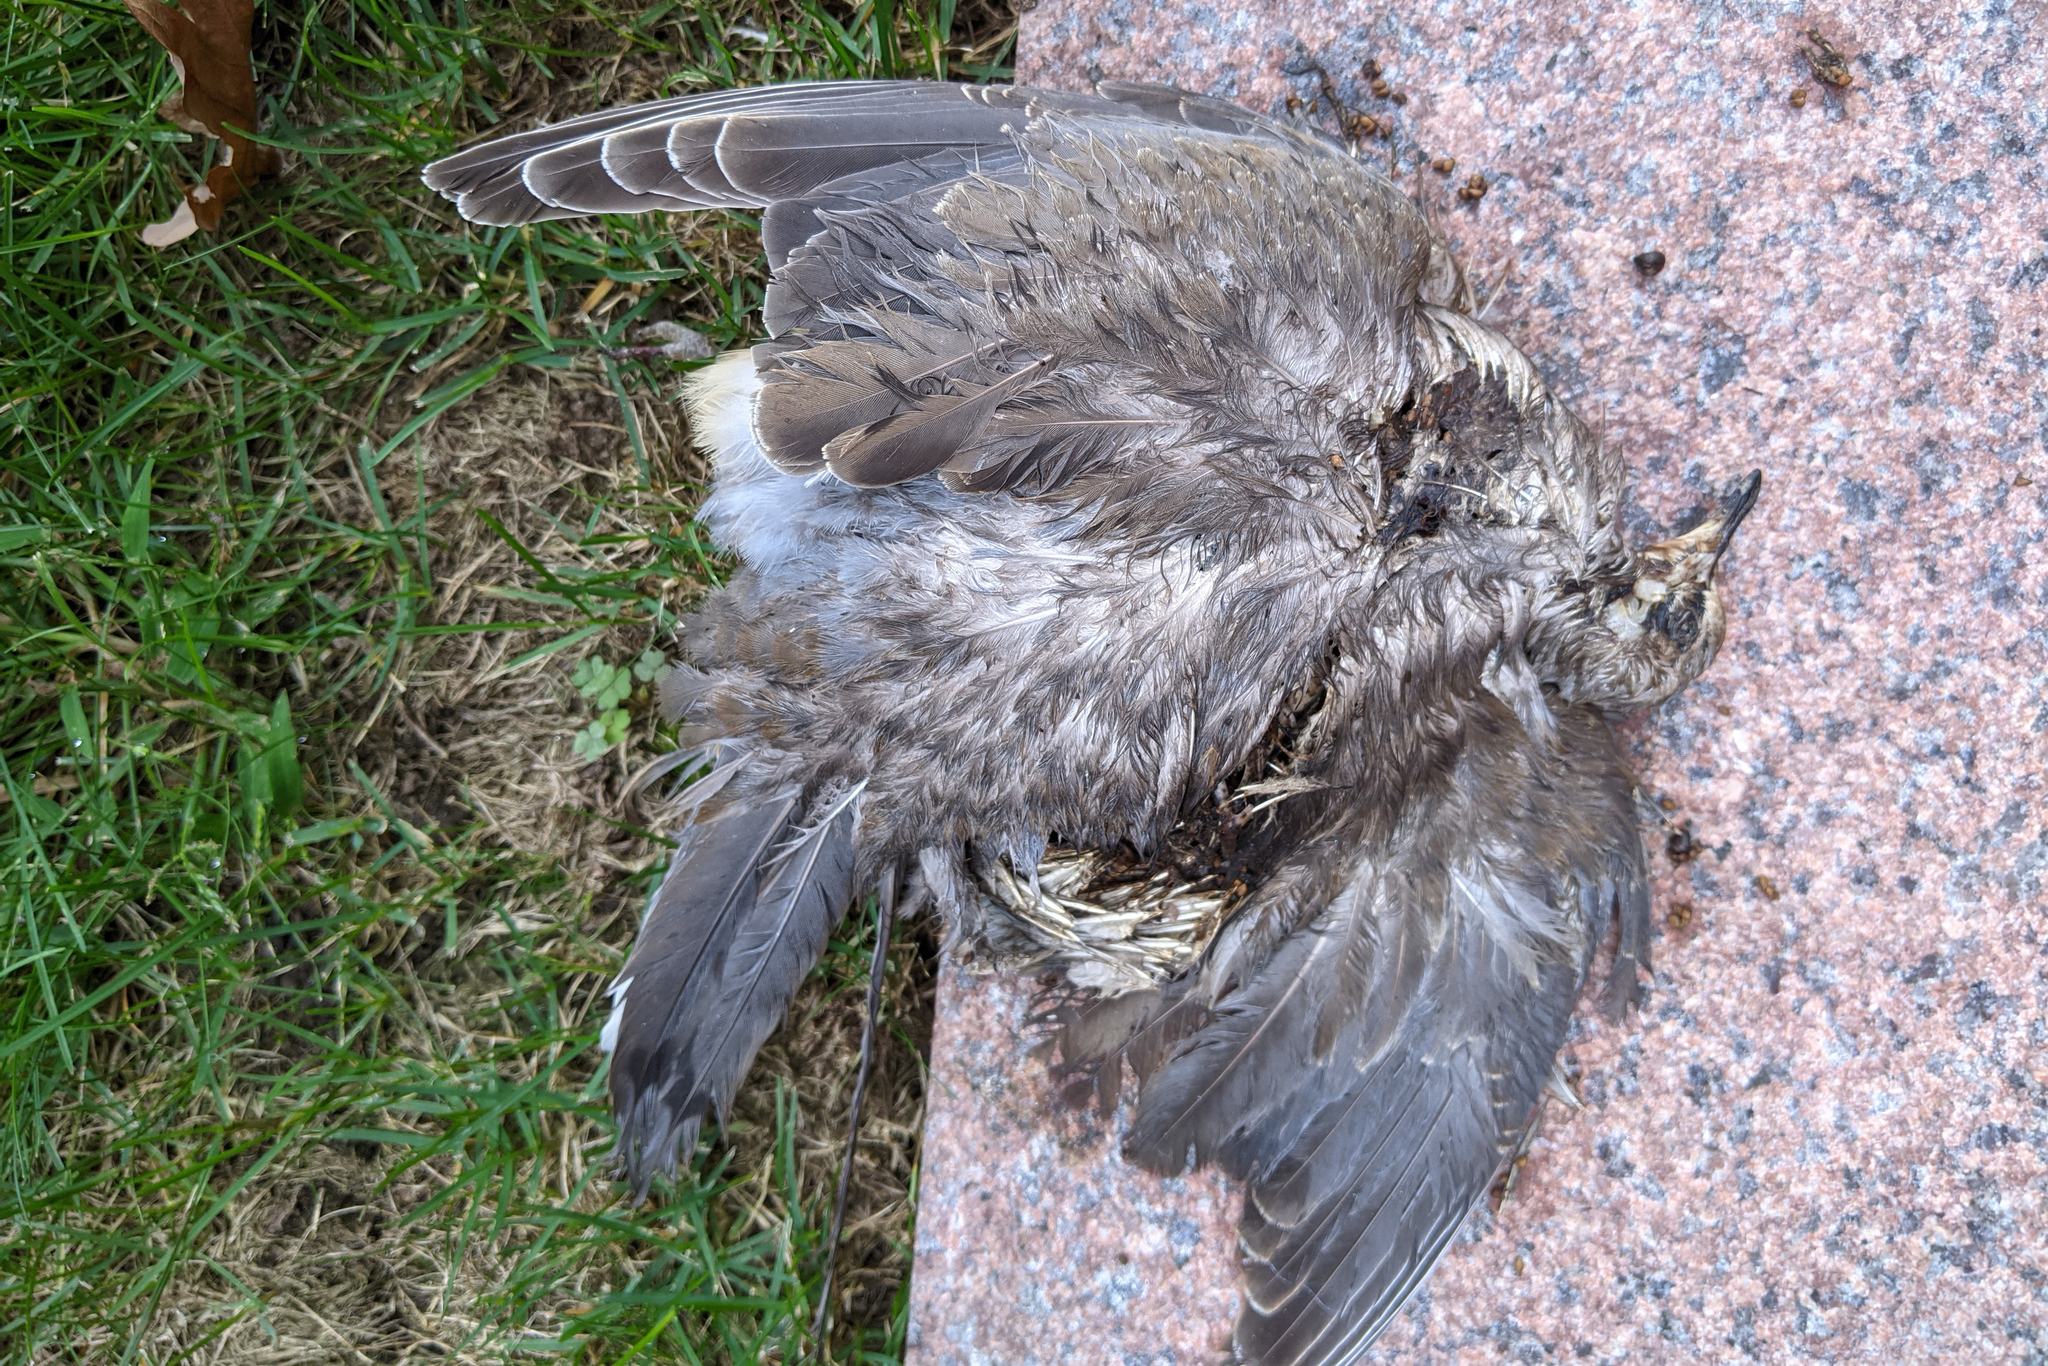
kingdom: Animalia
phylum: Chordata
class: Aves
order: Columbiformes
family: Columbidae
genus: Zenaida
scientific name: Zenaida macroura
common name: Mourning dove
